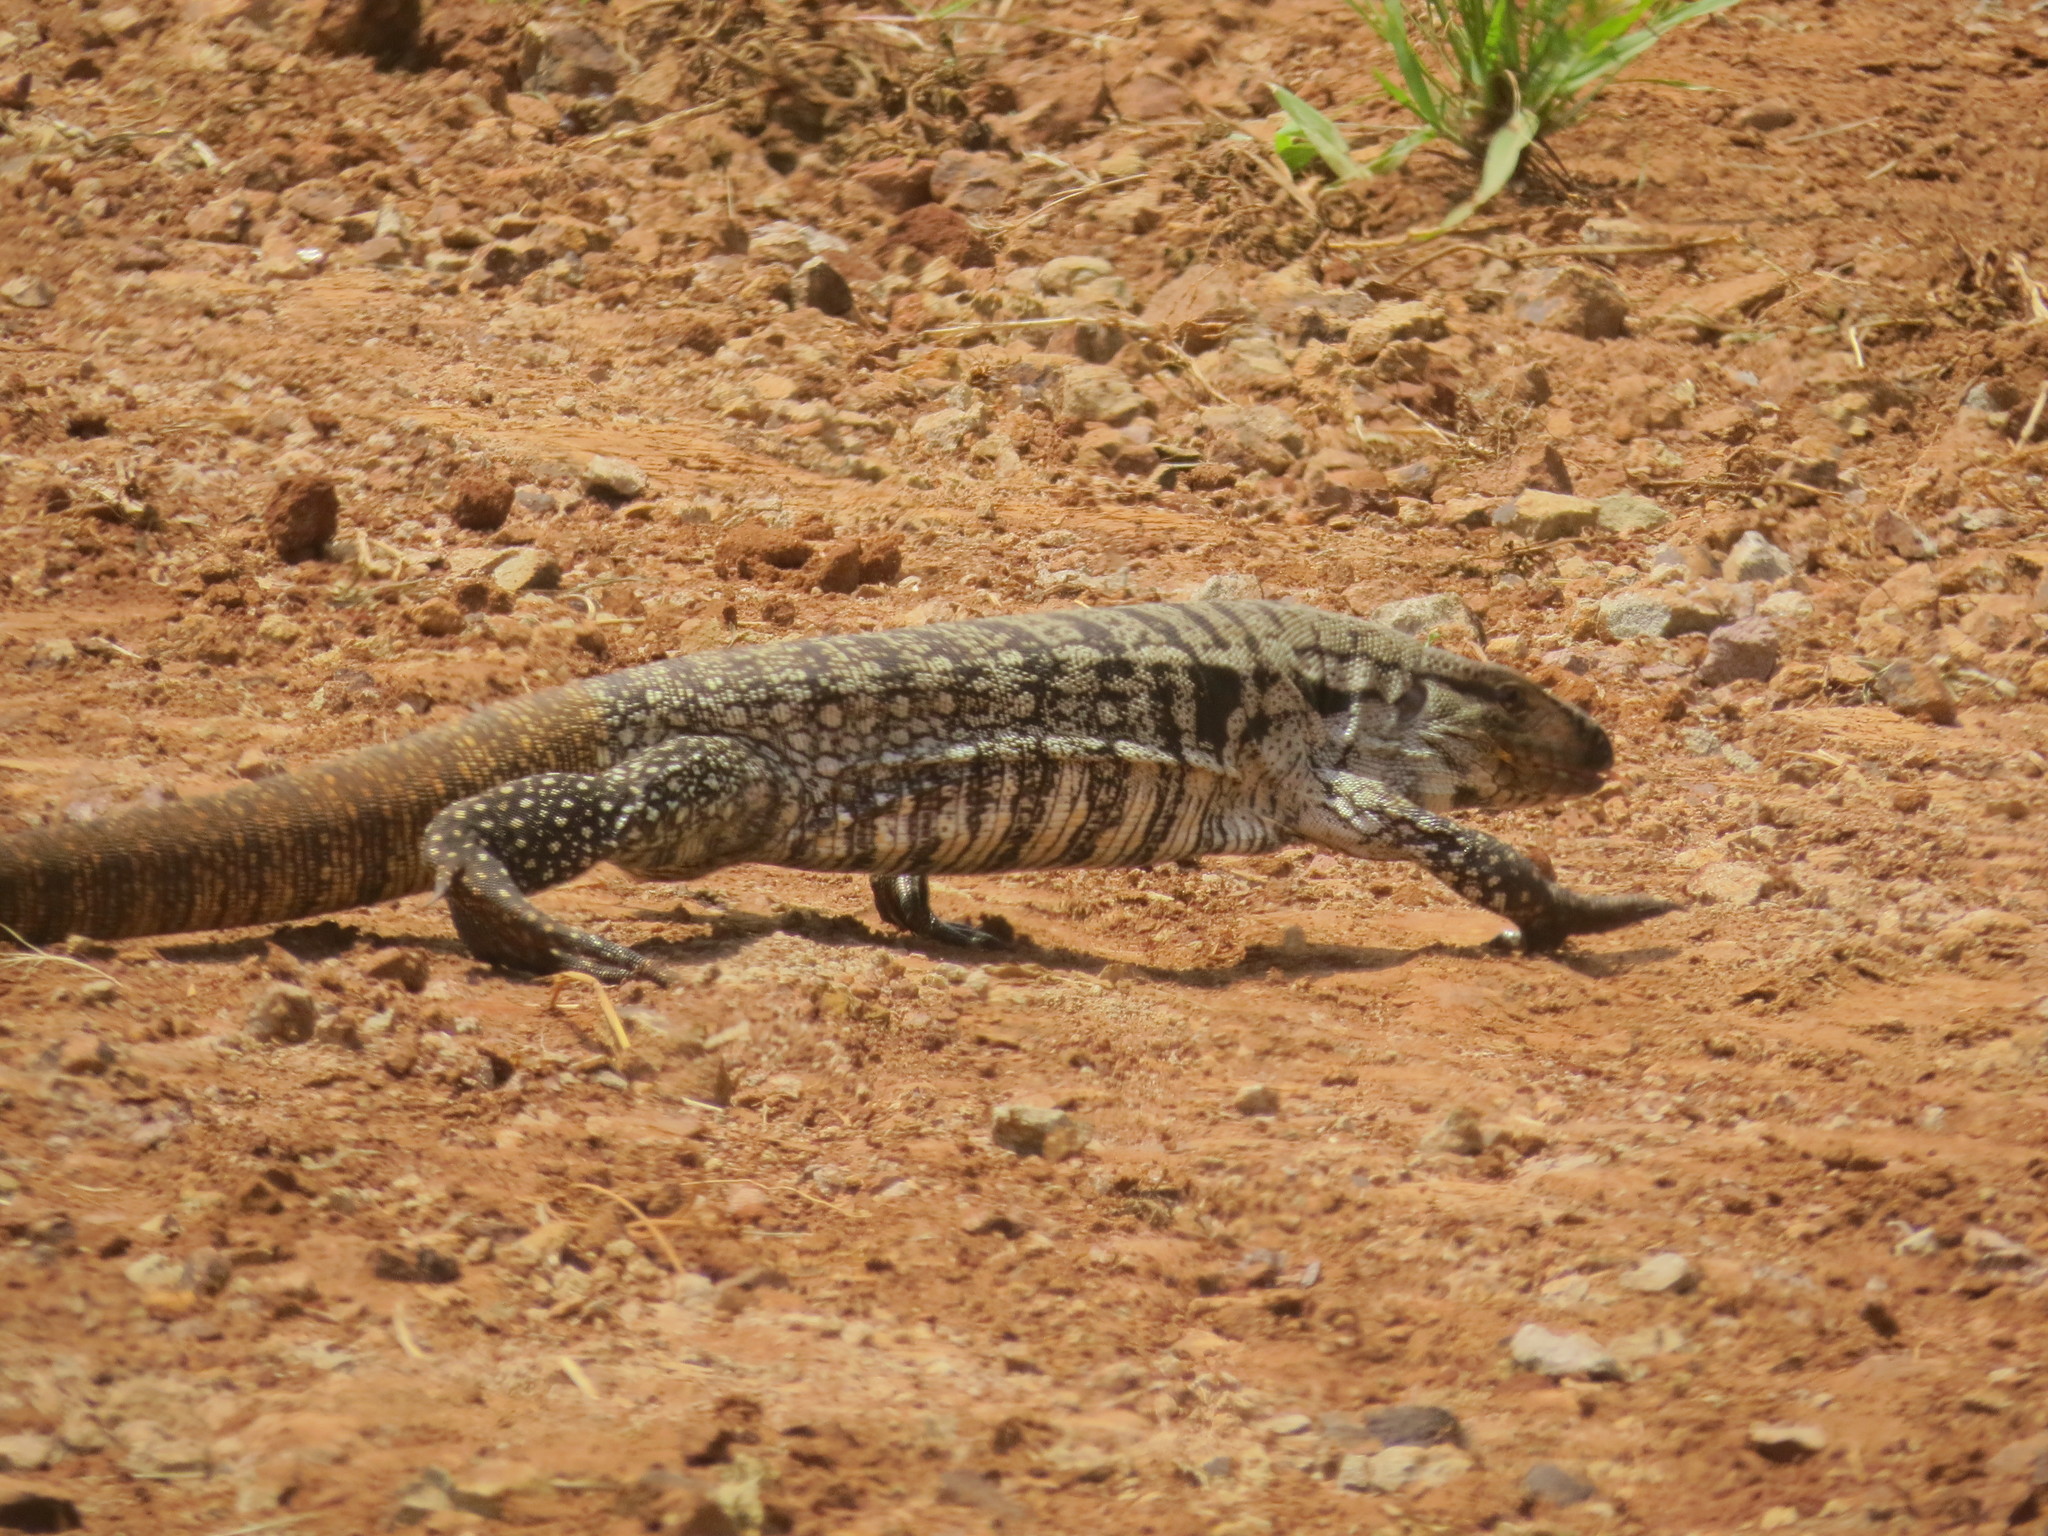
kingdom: Animalia
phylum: Chordata
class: Squamata
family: Teiidae
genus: Salvator
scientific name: Salvator merianae
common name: Argentine black and white tegu
